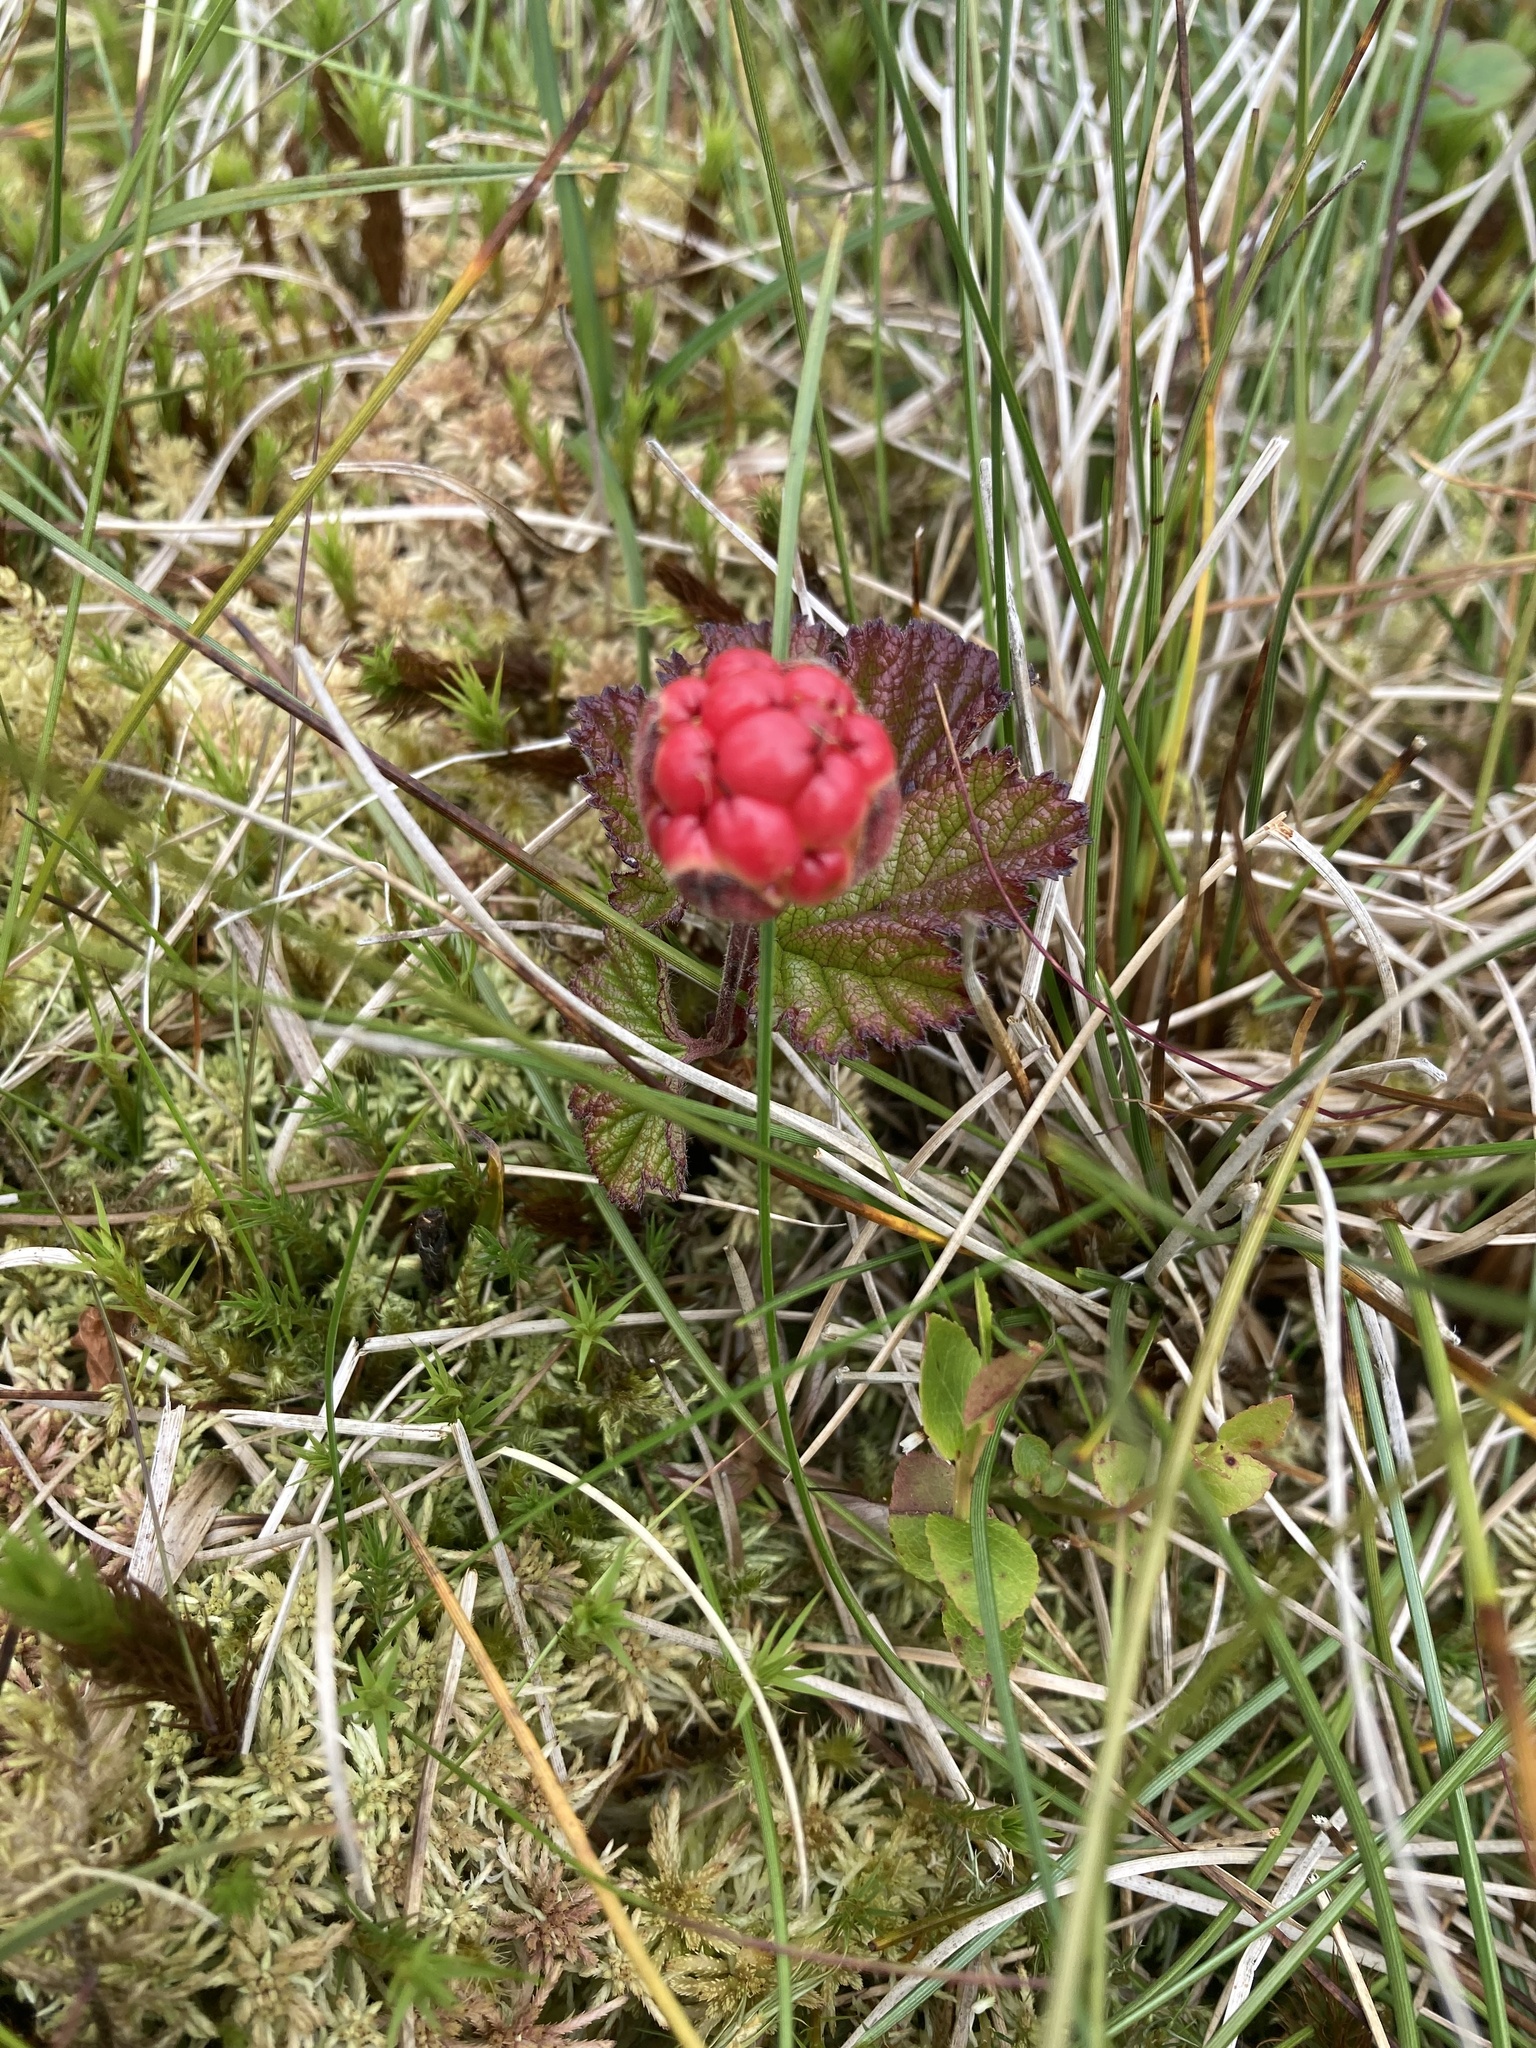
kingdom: Plantae
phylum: Tracheophyta
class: Magnoliopsida
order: Rosales
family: Rosaceae
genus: Rubus
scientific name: Rubus chamaemorus
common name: Cloudberry
